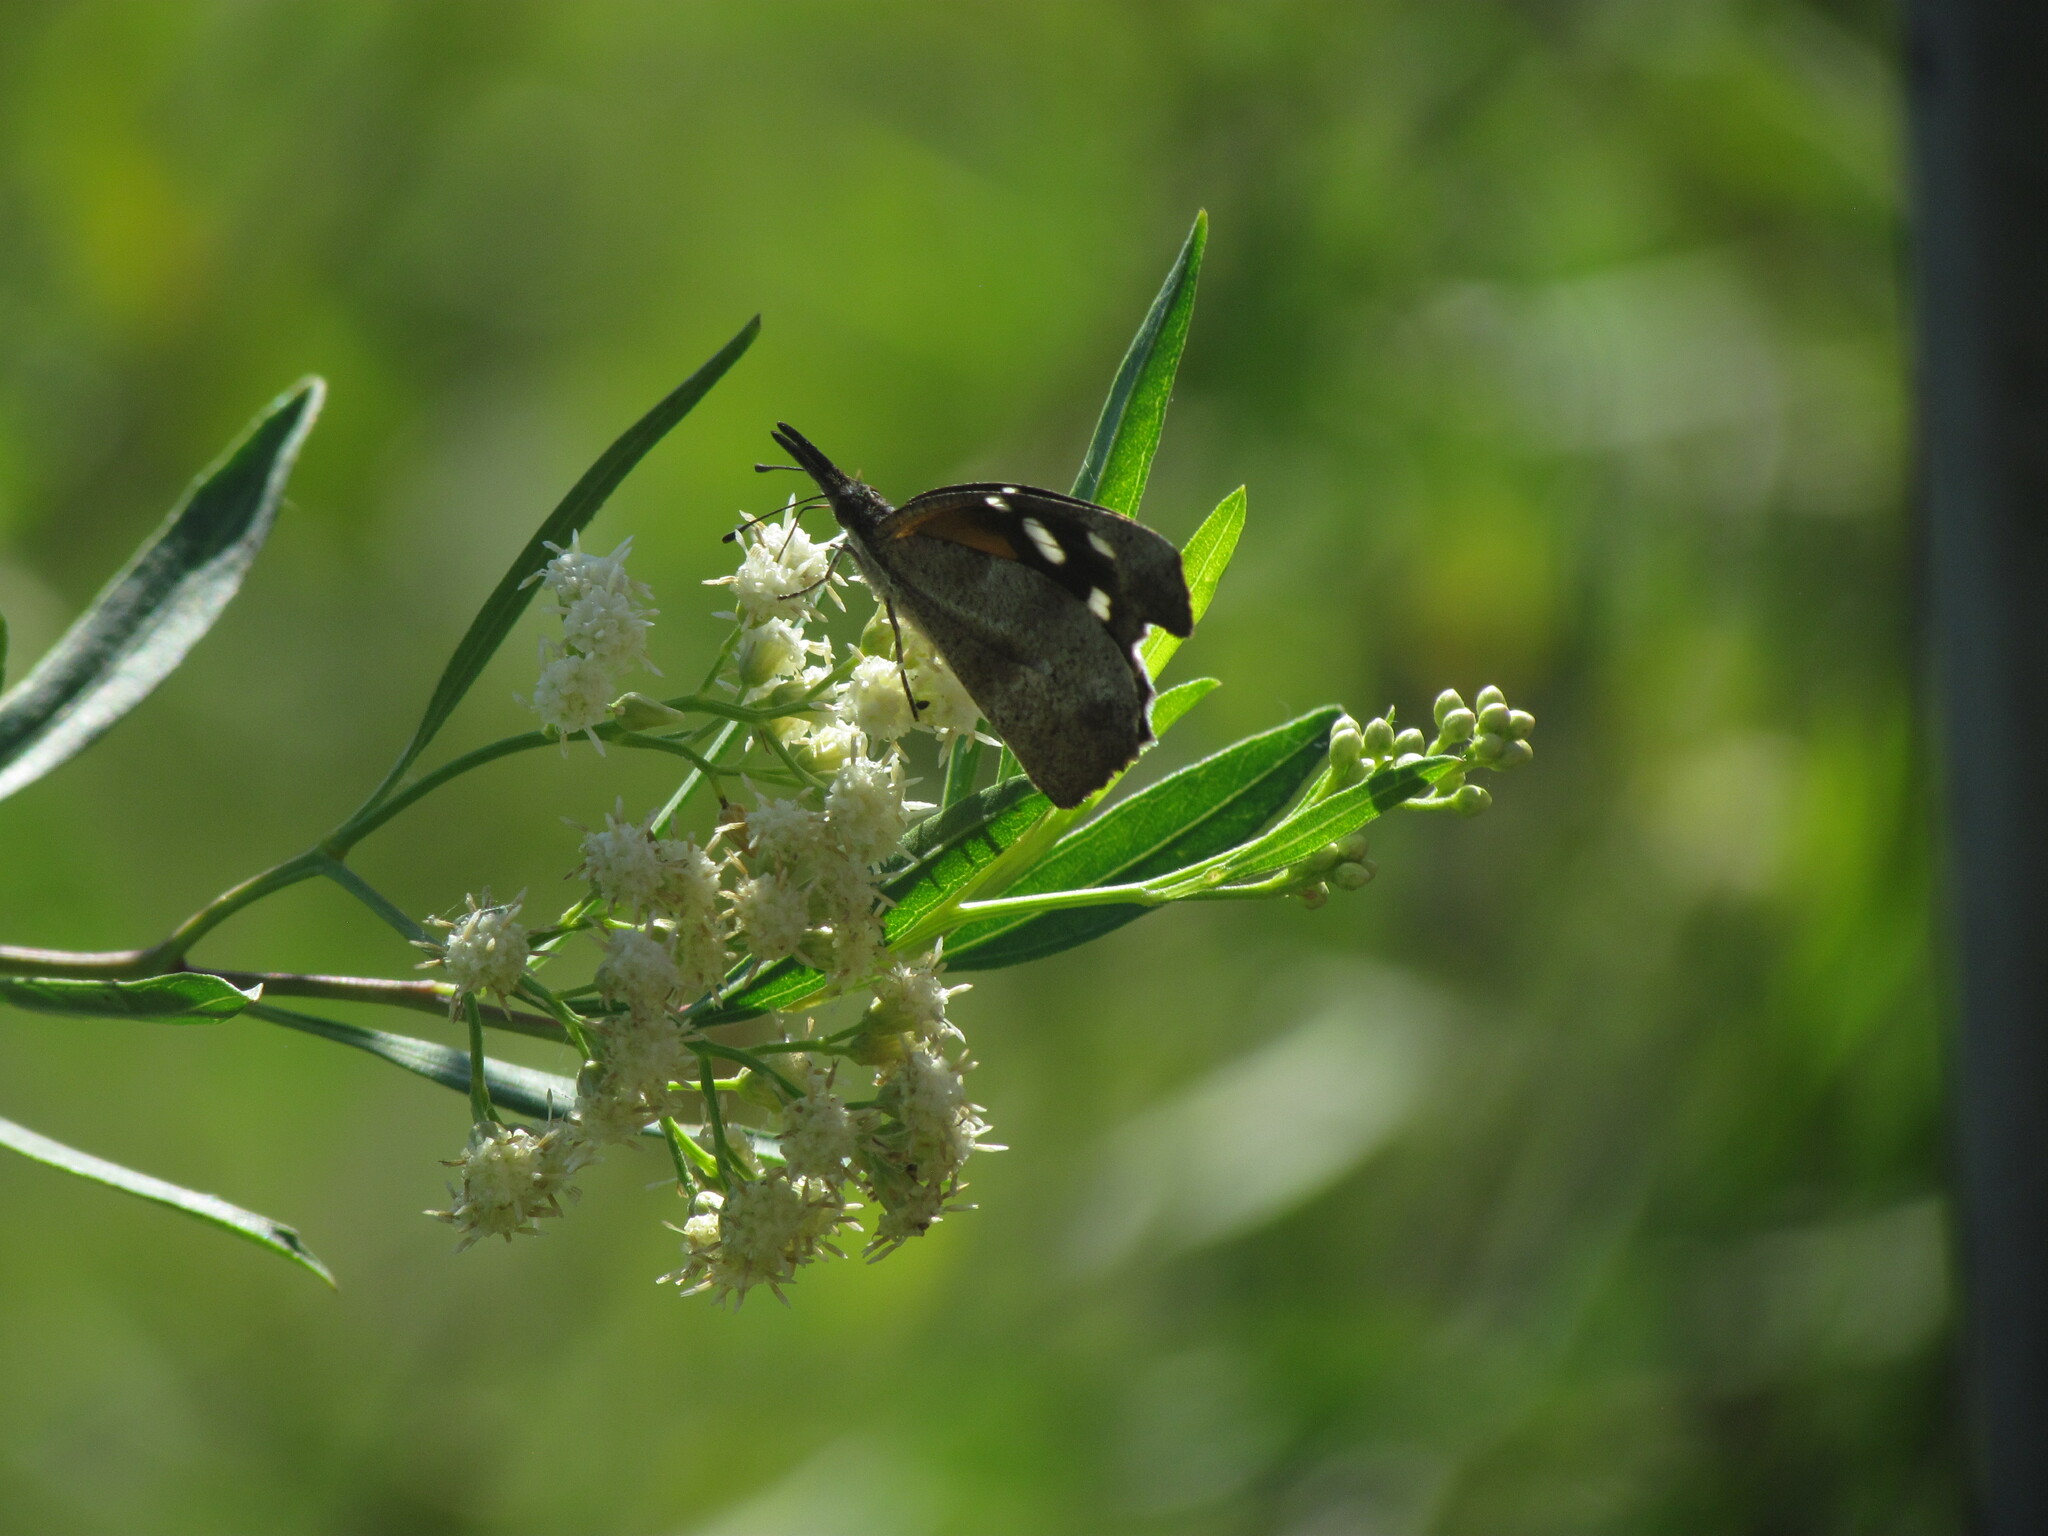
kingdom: Animalia
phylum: Arthropoda
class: Insecta
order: Lepidoptera
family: Nymphalidae
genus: Libytheana
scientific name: Libytheana carinenta
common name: American snout
